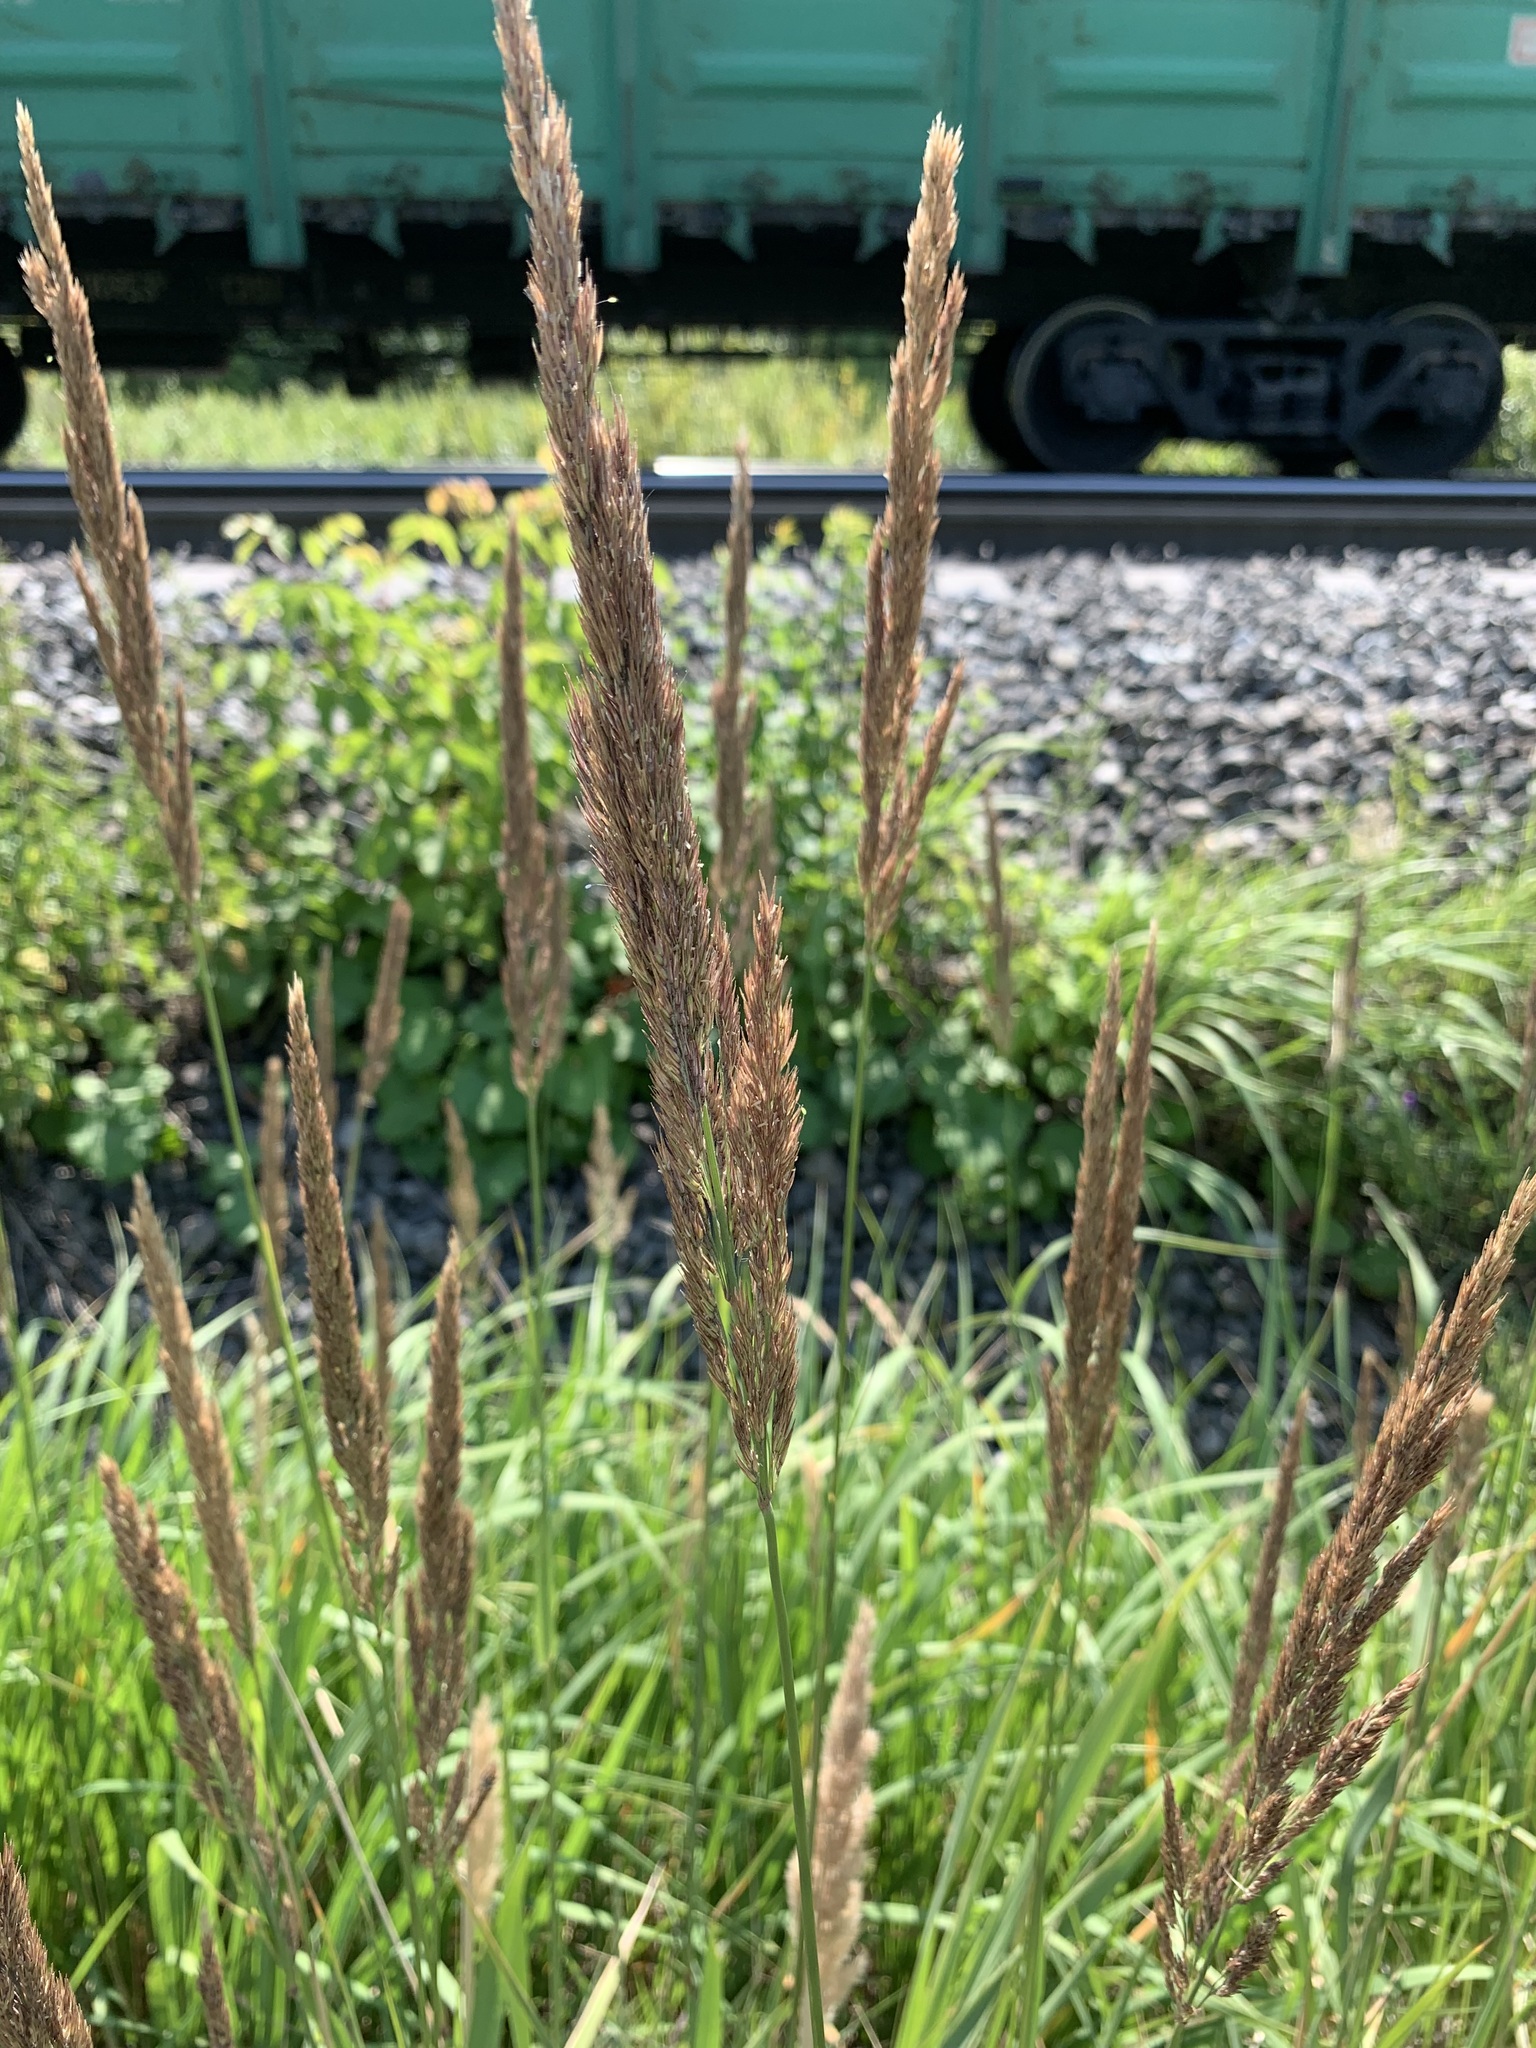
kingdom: Plantae
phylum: Tracheophyta
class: Liliopsida
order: Poales
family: Poaceae
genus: Calamagrostis
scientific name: Calamagrostis epigejos
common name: Wood small-reed
